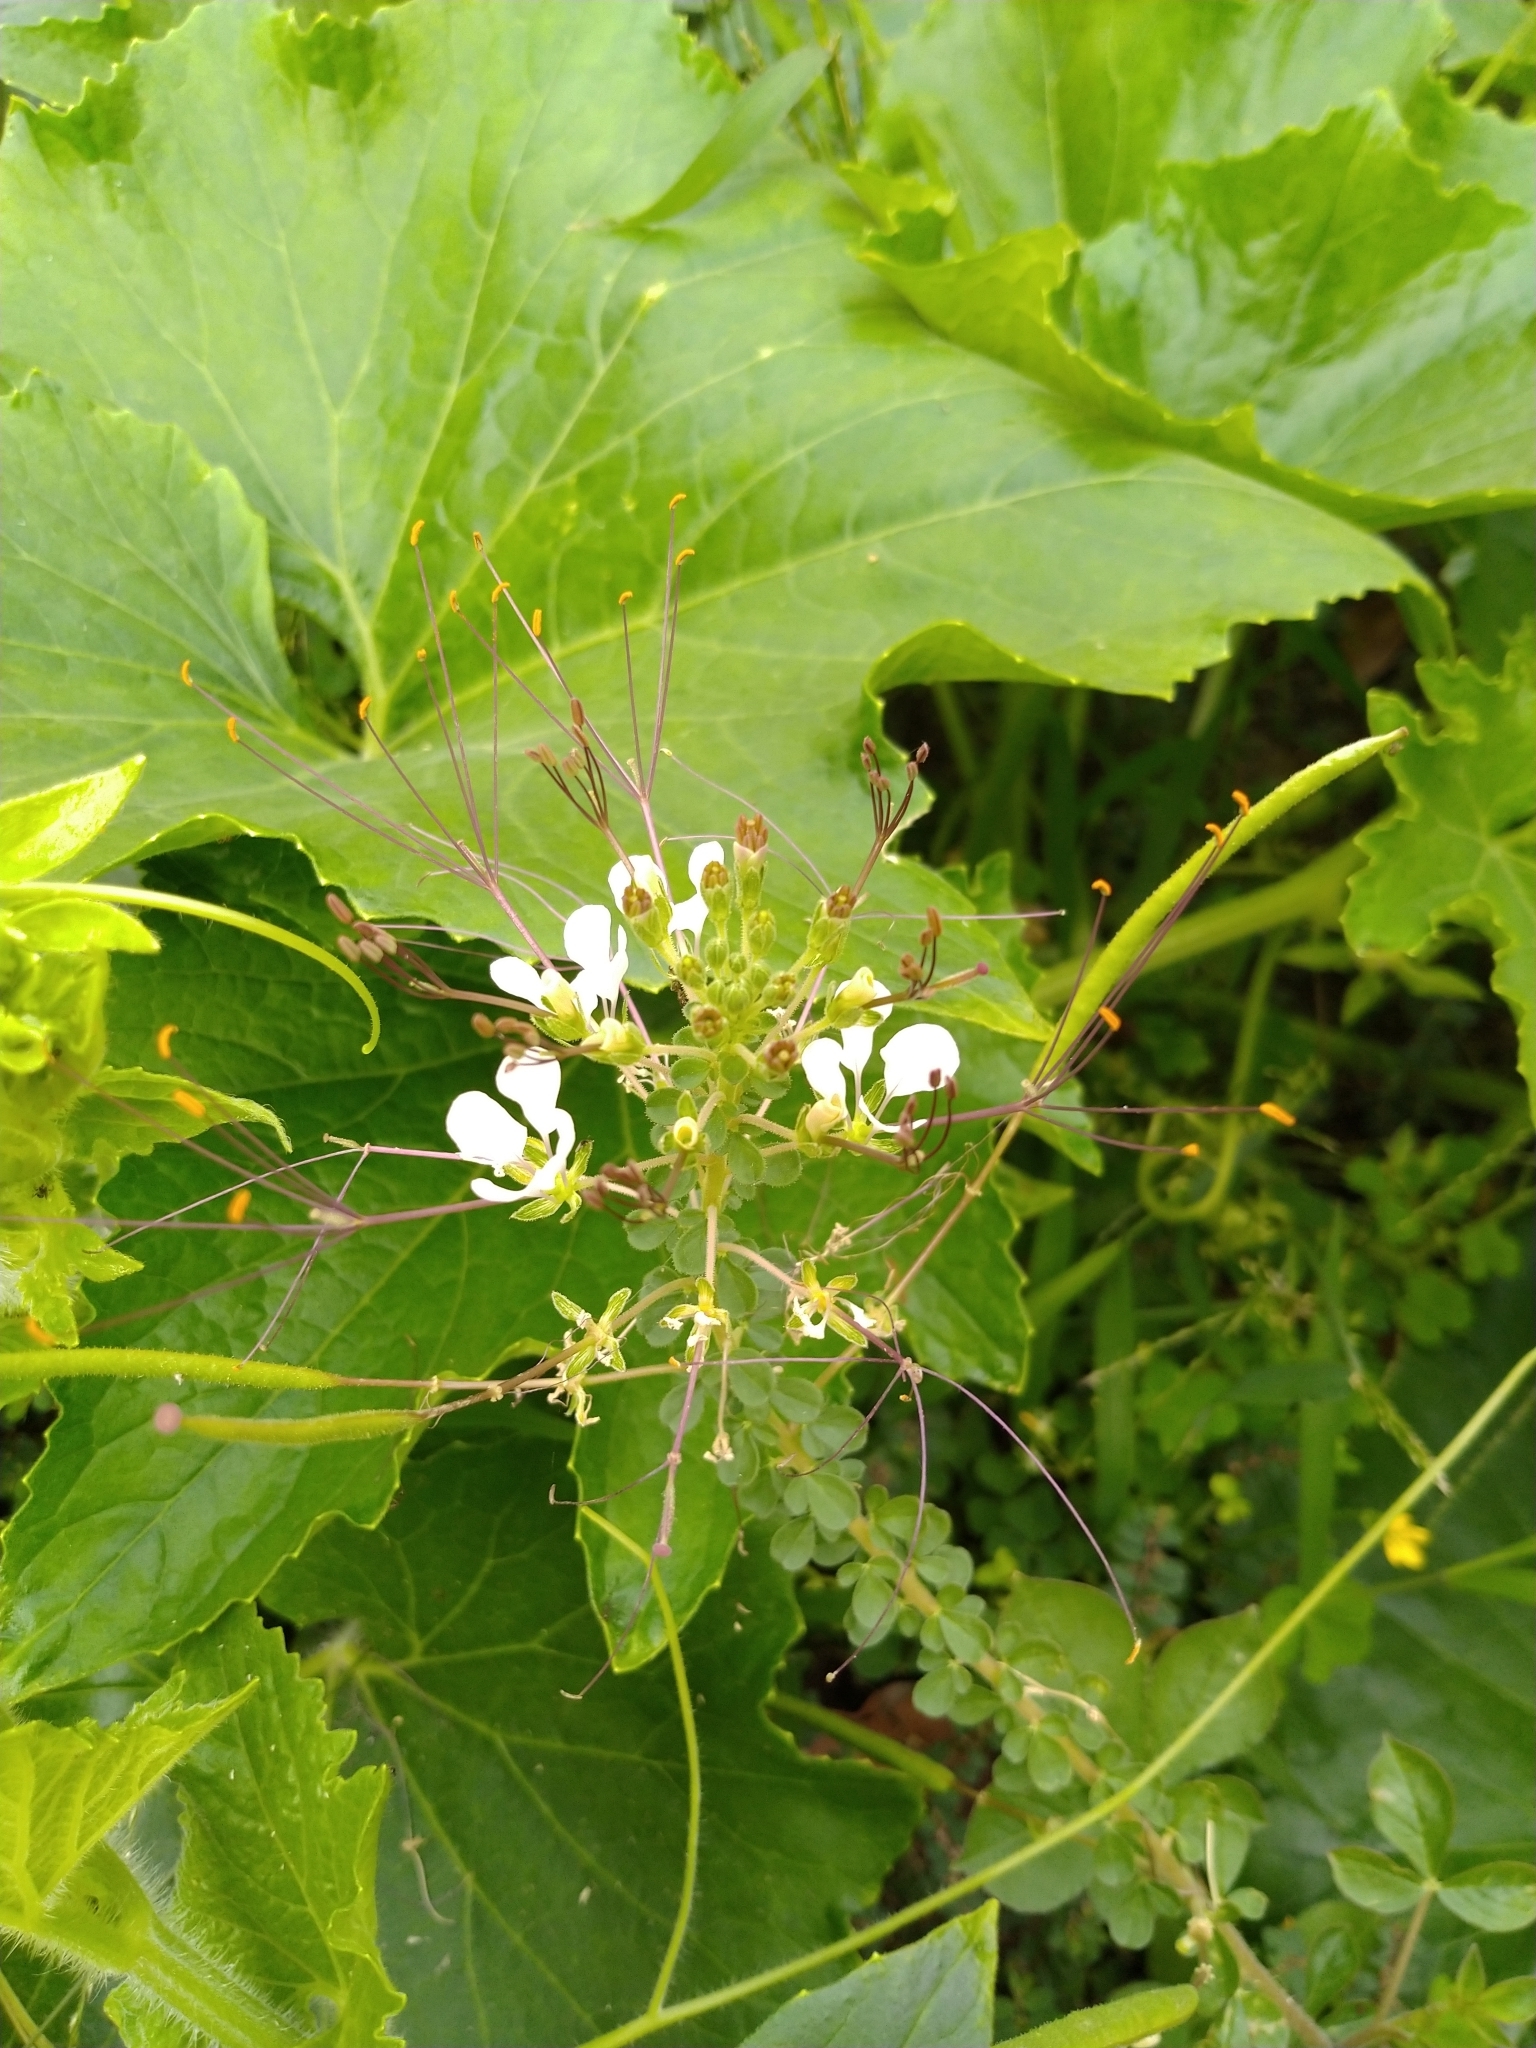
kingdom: Plantae
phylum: Tracheophyta
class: Magnoliopsida
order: Brassicales
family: Cleomaceae
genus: Gynandropsis
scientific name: Gynandropsis gynandra
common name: Spiderwisp
